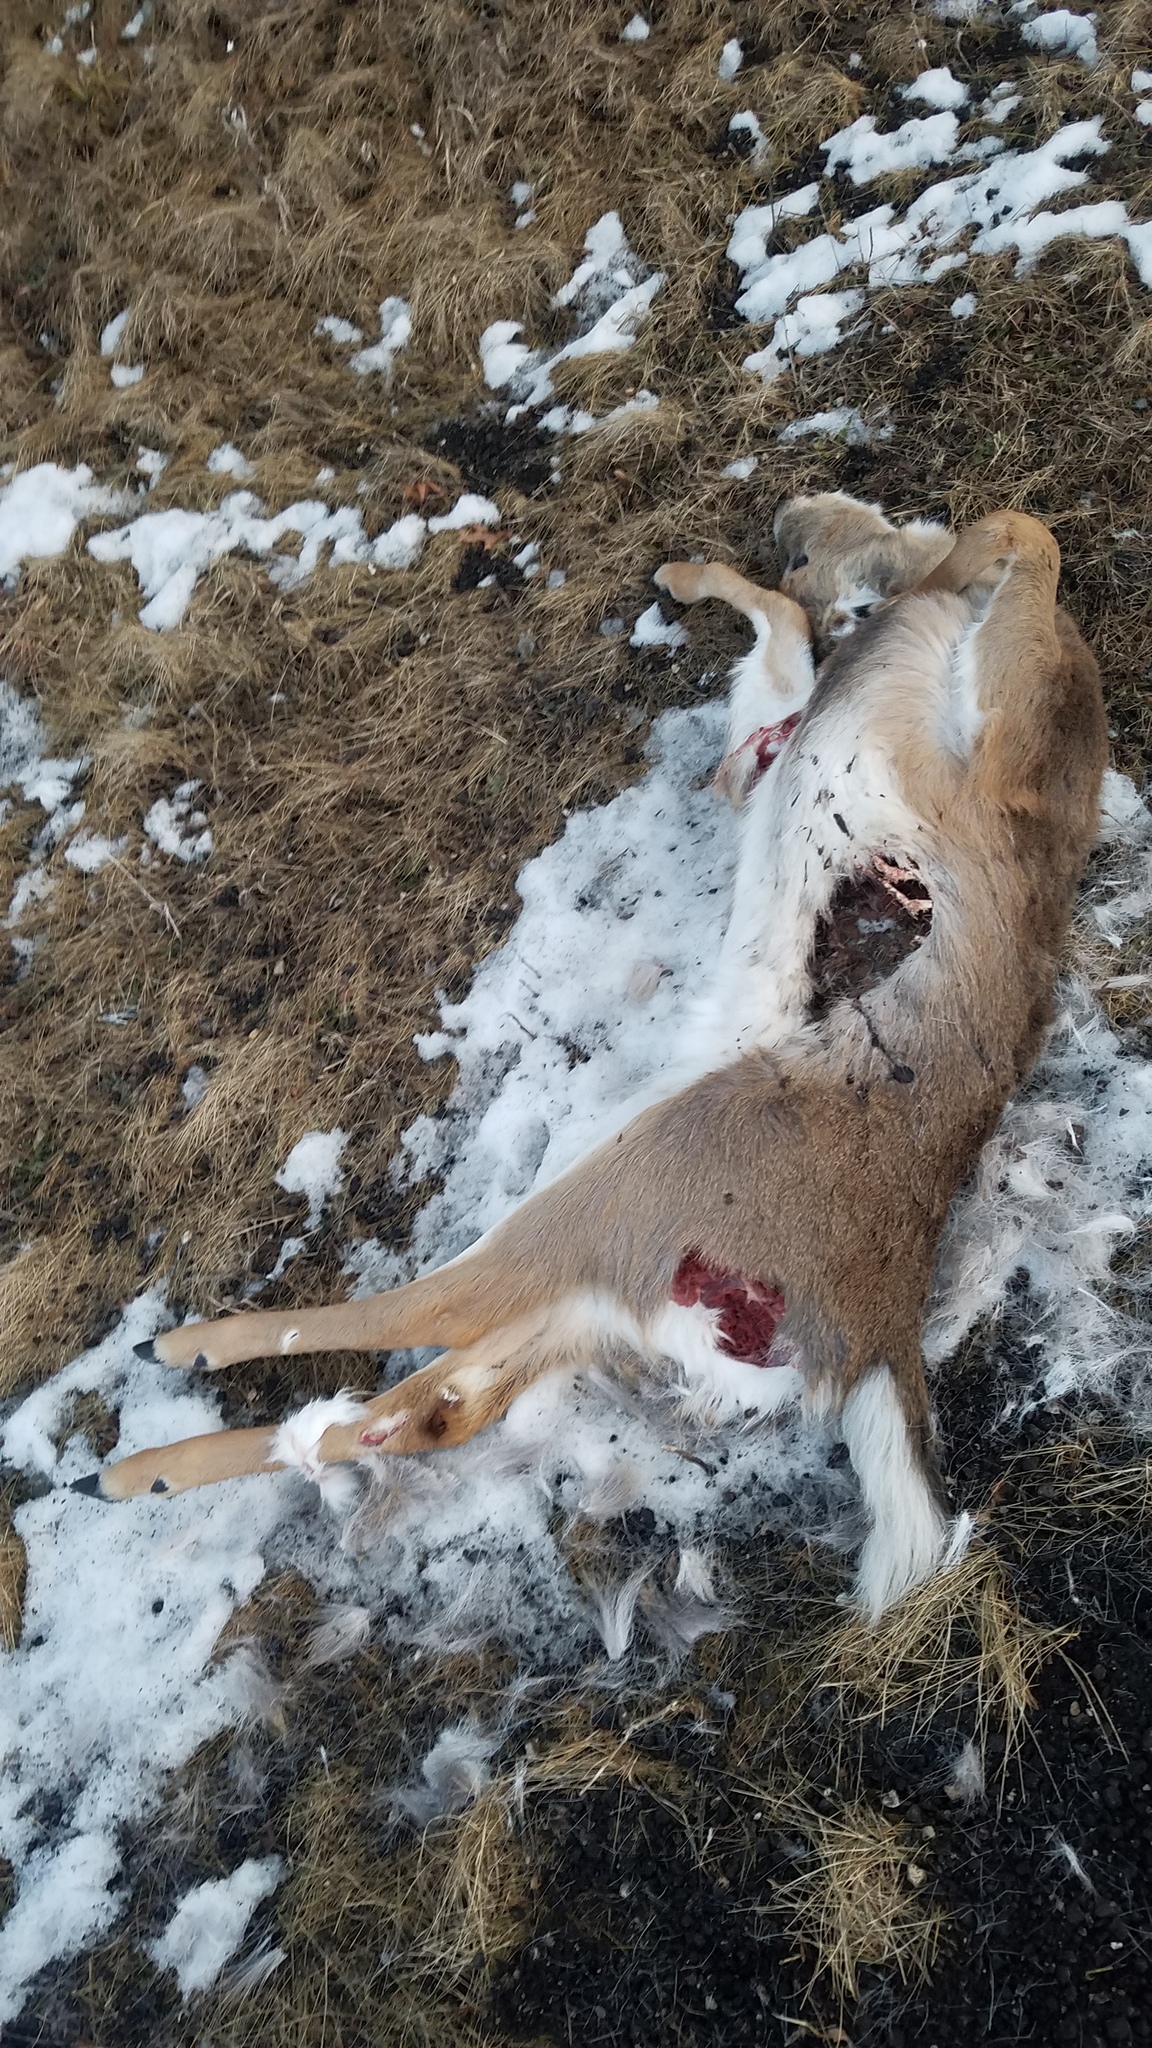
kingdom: Animalia
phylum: Chordata
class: Mammalia
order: Artiodactyla
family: Cervidae
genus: Odocoileus
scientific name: Odocoileus virginianus
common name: White-tailed deer
